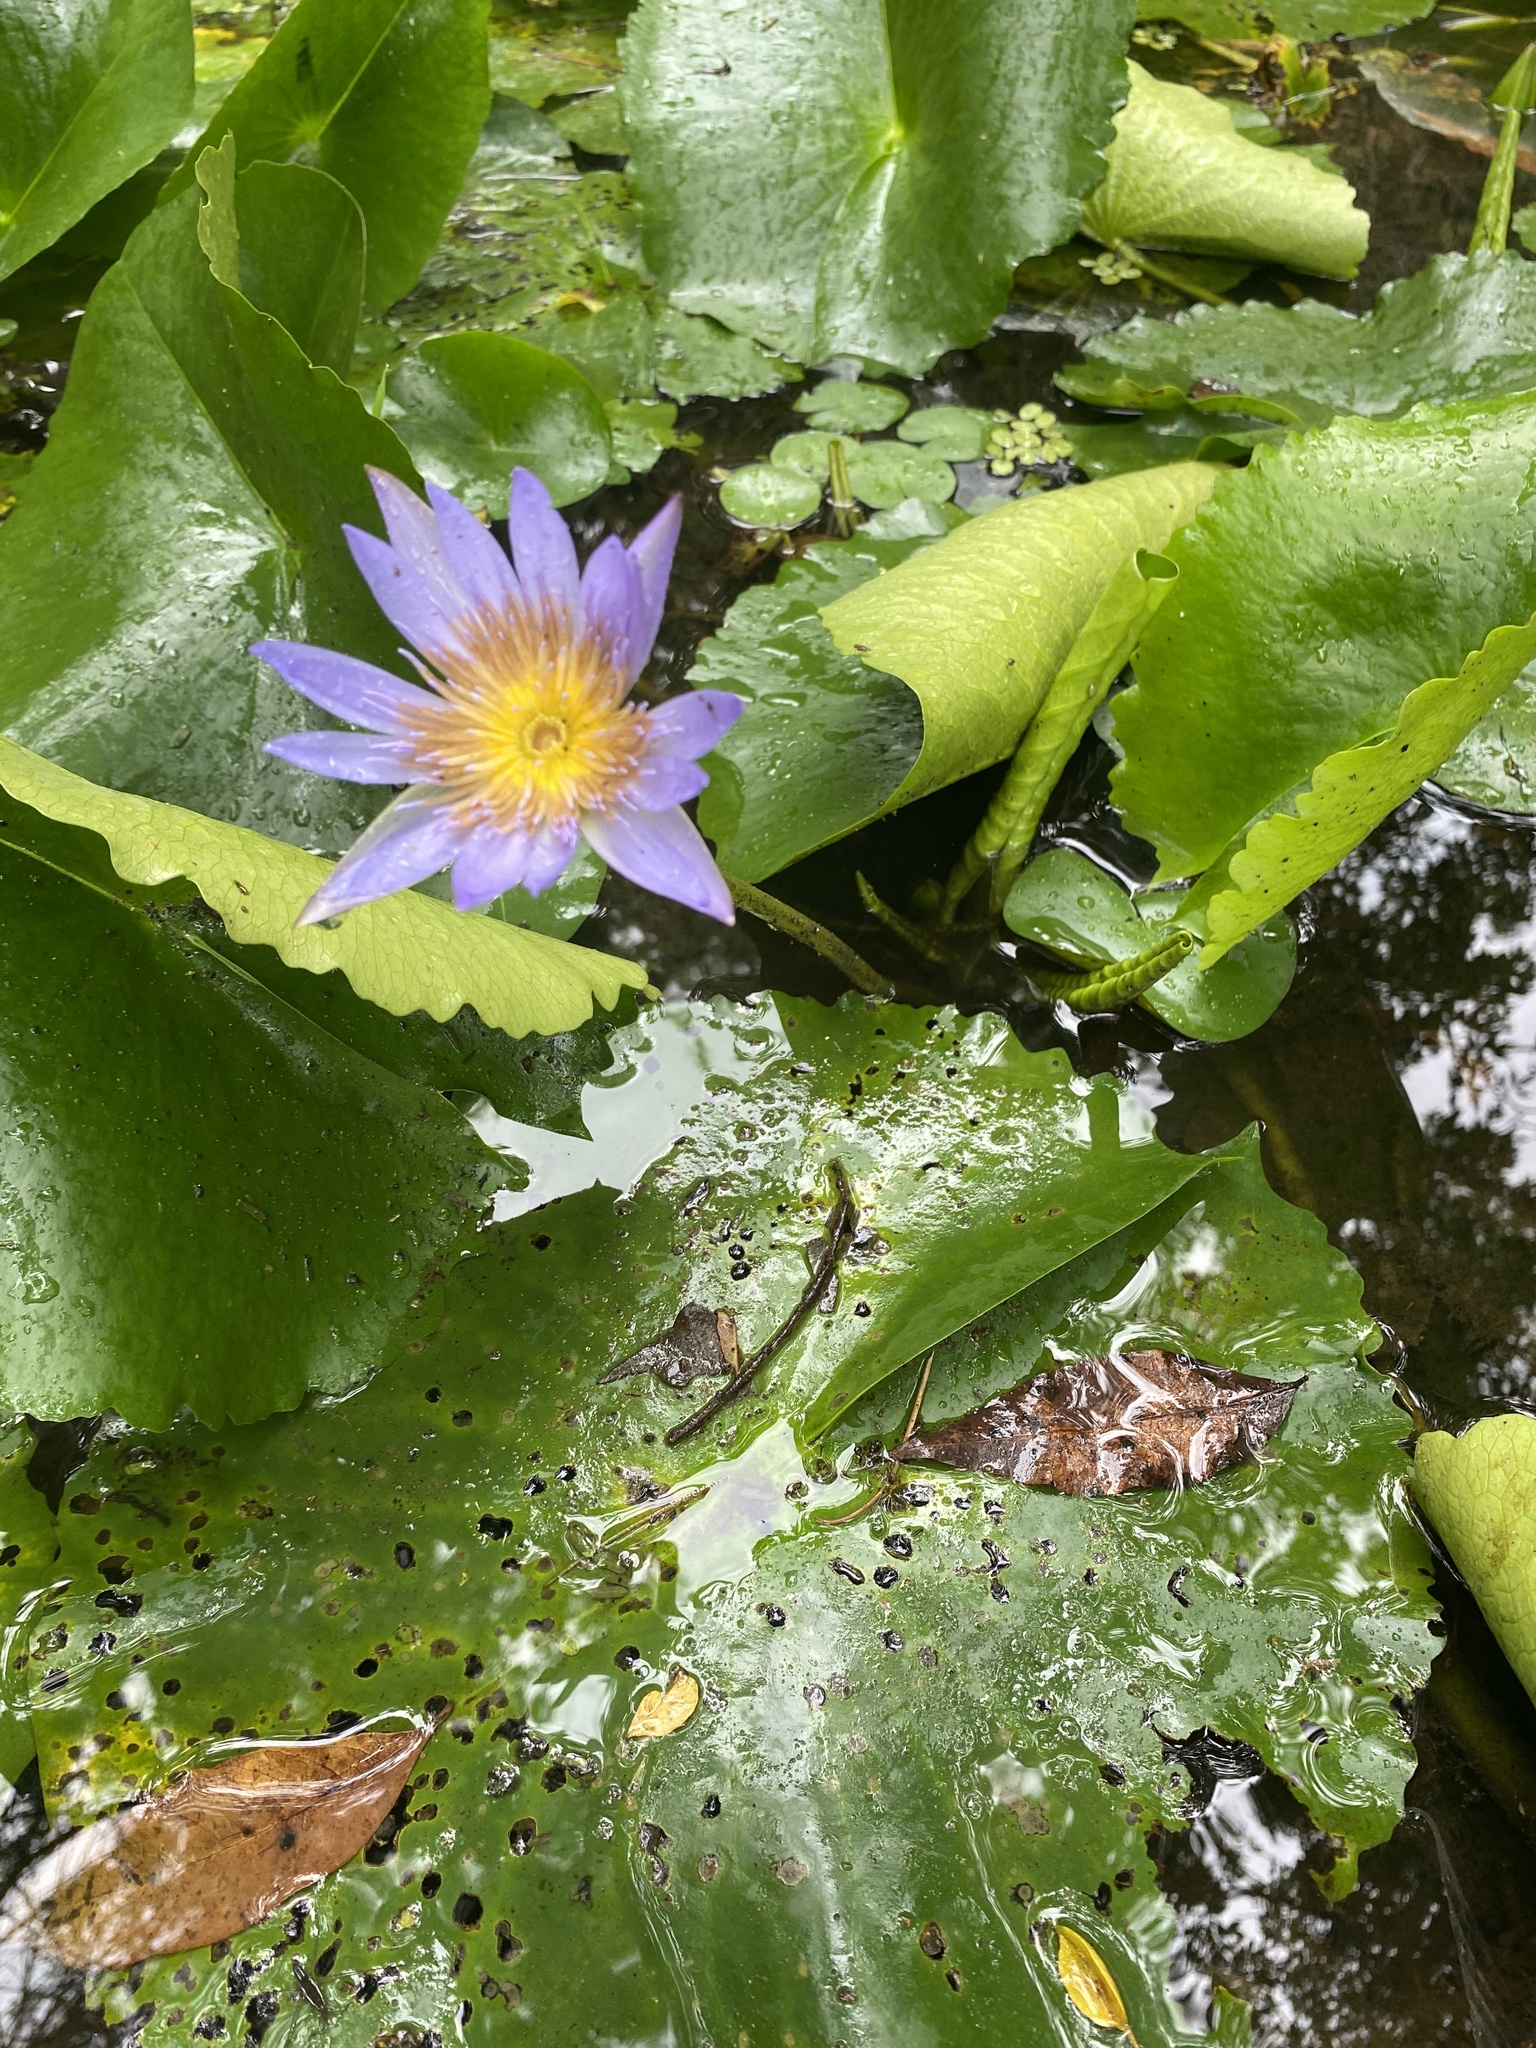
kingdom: Plantae
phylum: Tracheophyta
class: Magnoliopsida
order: Nymphaeales
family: Nymphaeaceae
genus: Nymphaea
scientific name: Nymphaea nouchali
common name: Blue lotus
